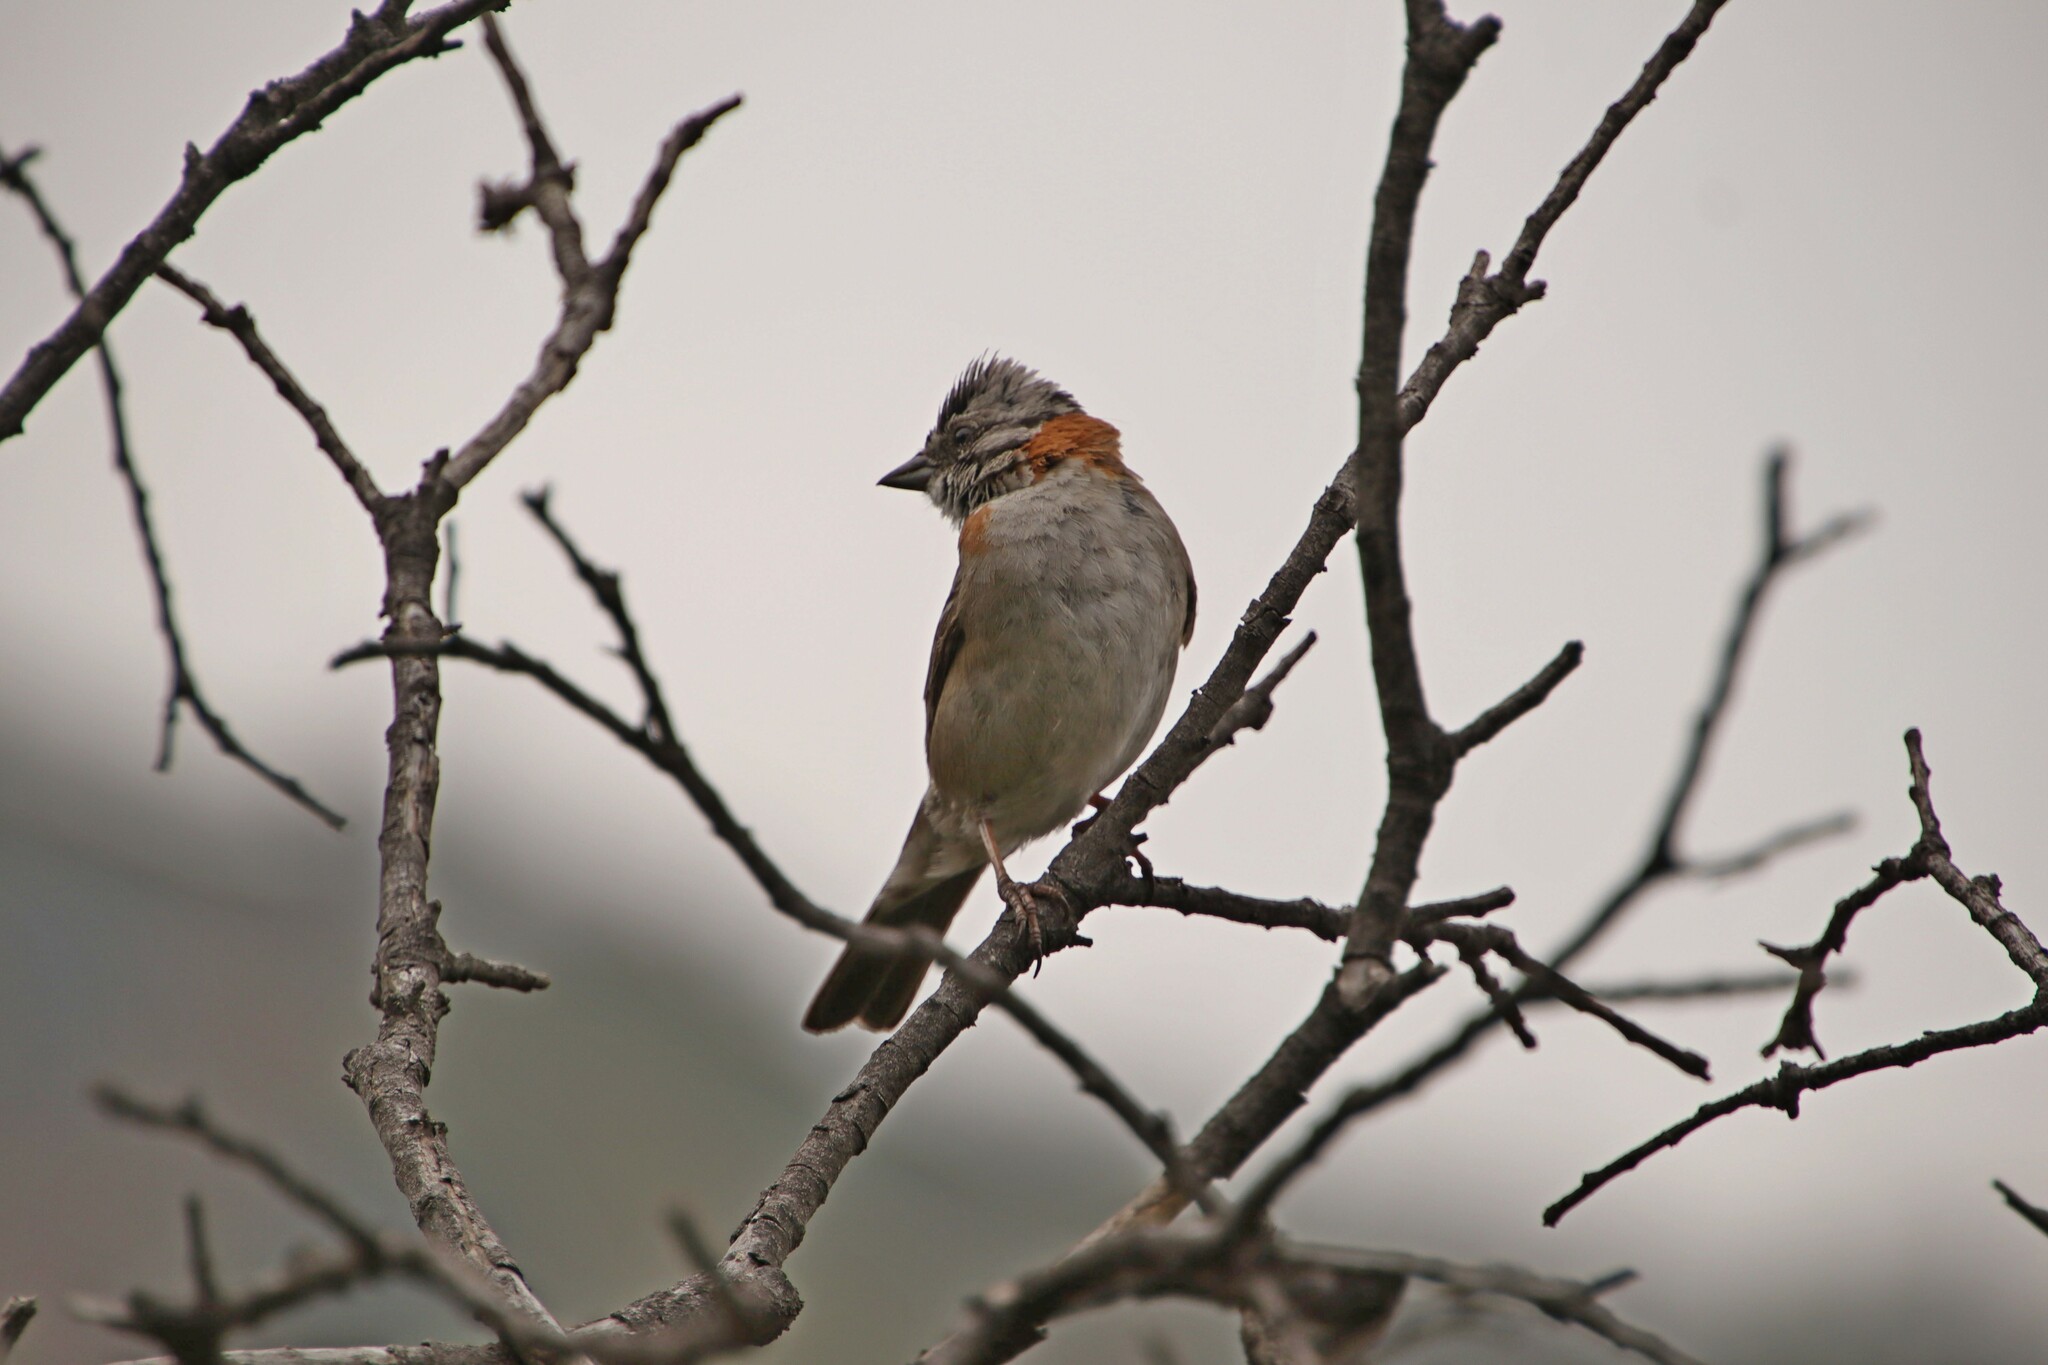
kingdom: Animalia
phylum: Chordata
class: Aves
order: Passeriformes
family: Passerellidae
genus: Zonotrichia
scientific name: Zonotrichia capensis
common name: Rufous-collared sparrow
